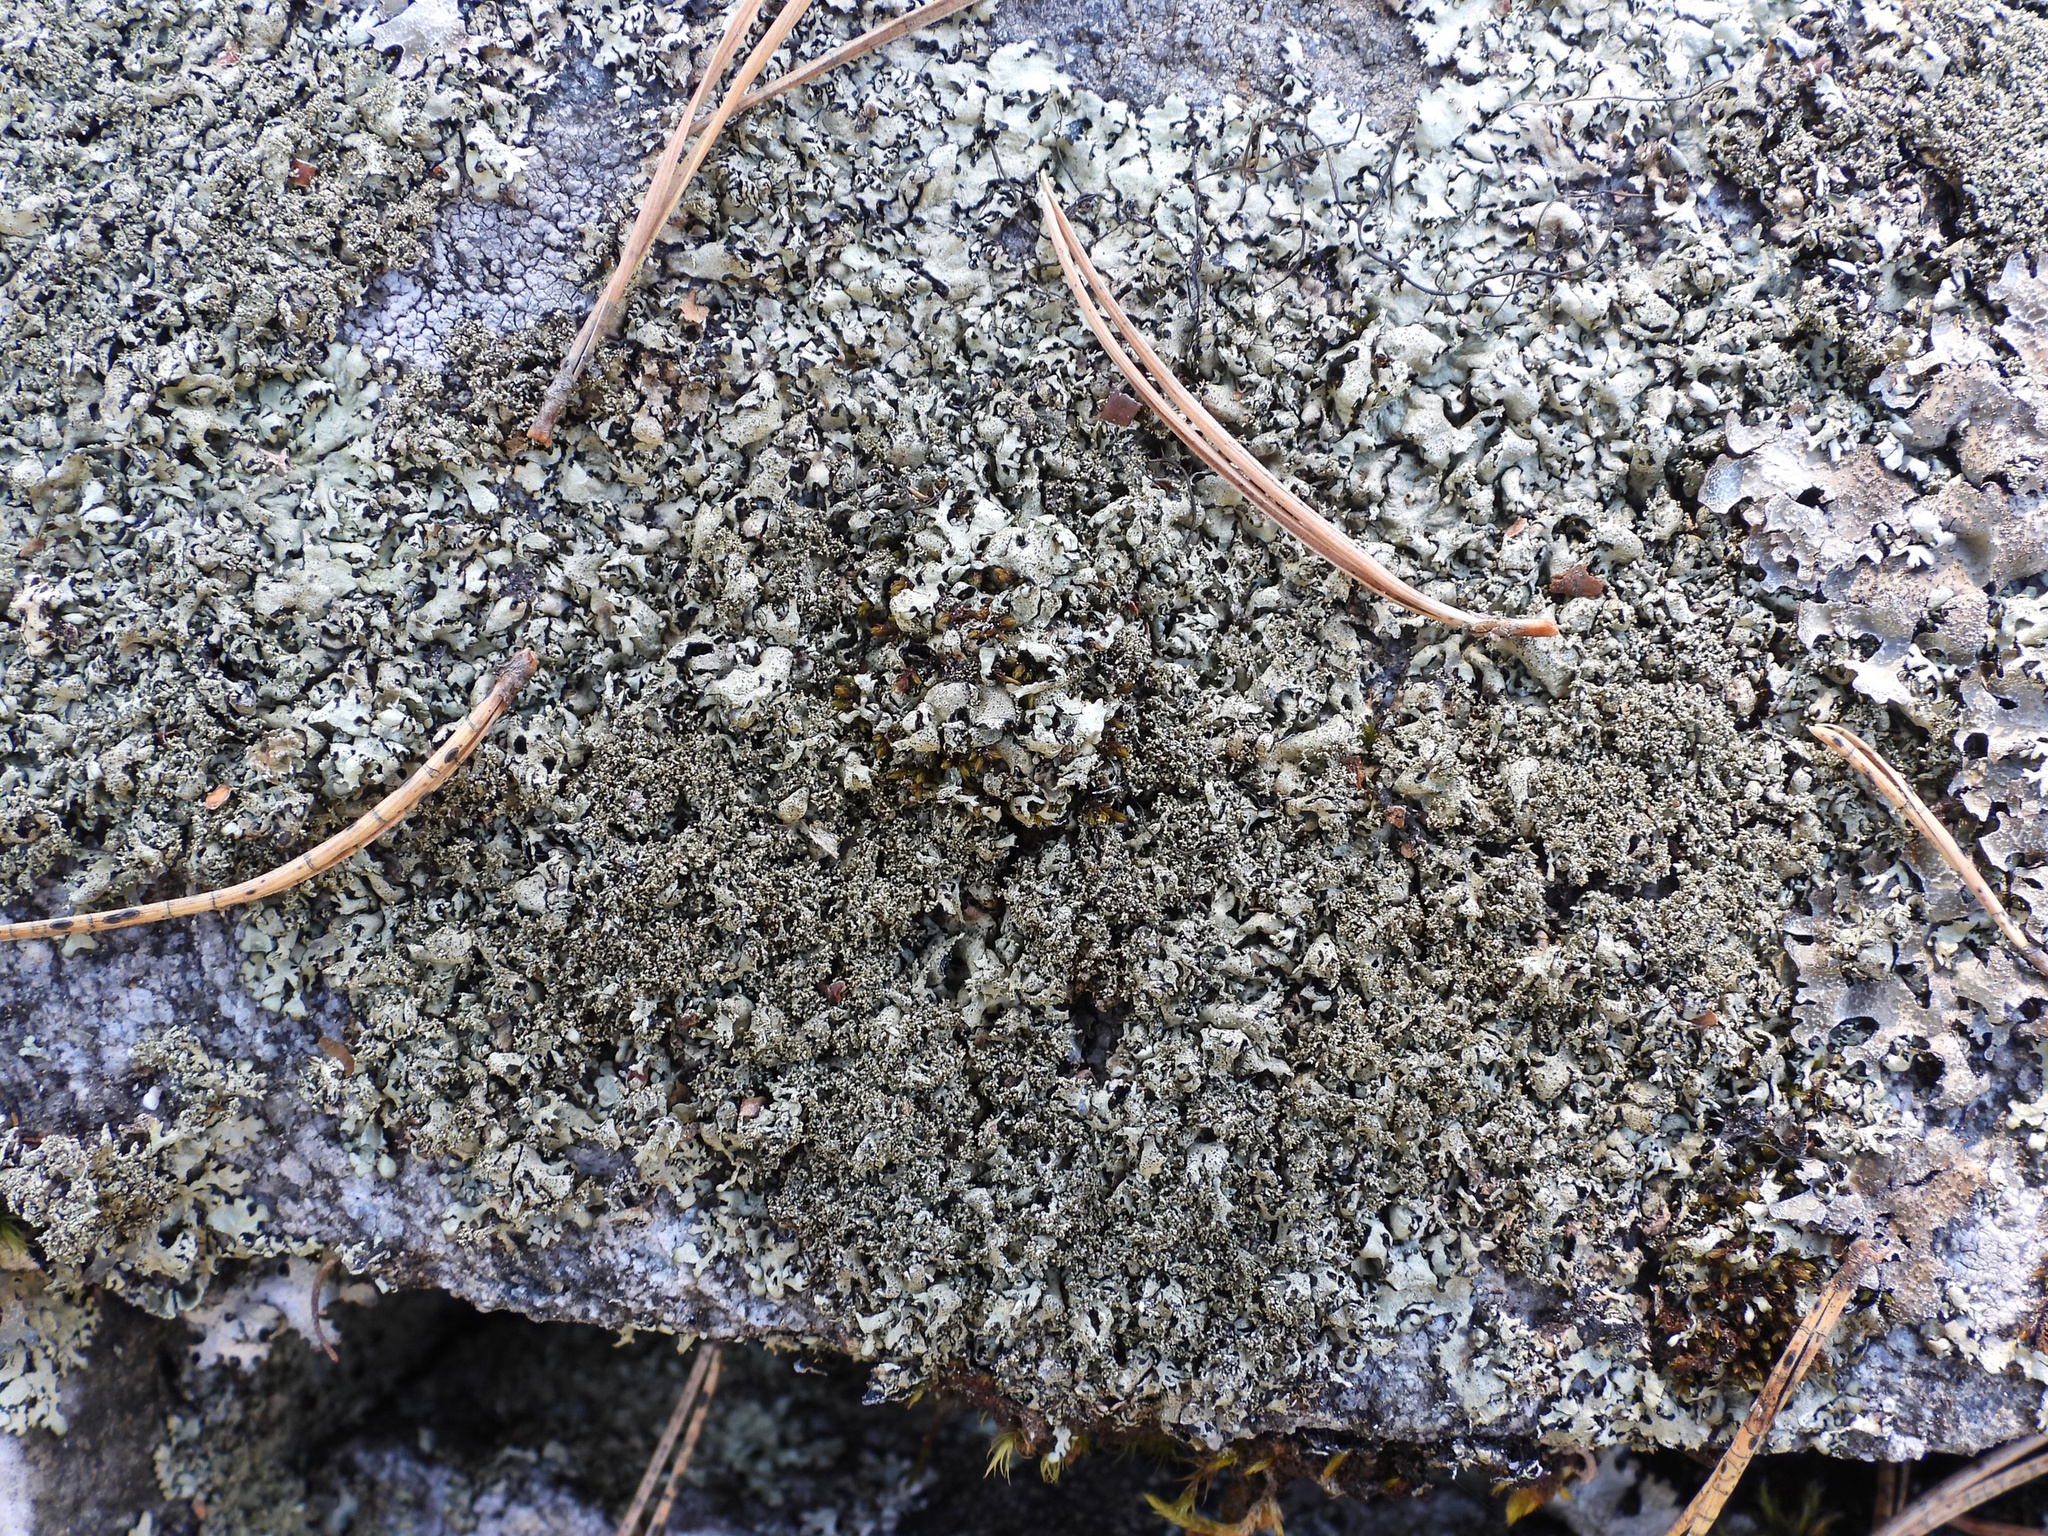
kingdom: Fungi
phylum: Ascomycota
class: Lecanoromycetes
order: Lecanorales
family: Parmeliaceae
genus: Xanthoparmelia
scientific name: Xanthoparmelia conspersa
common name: Peppered rock shield
